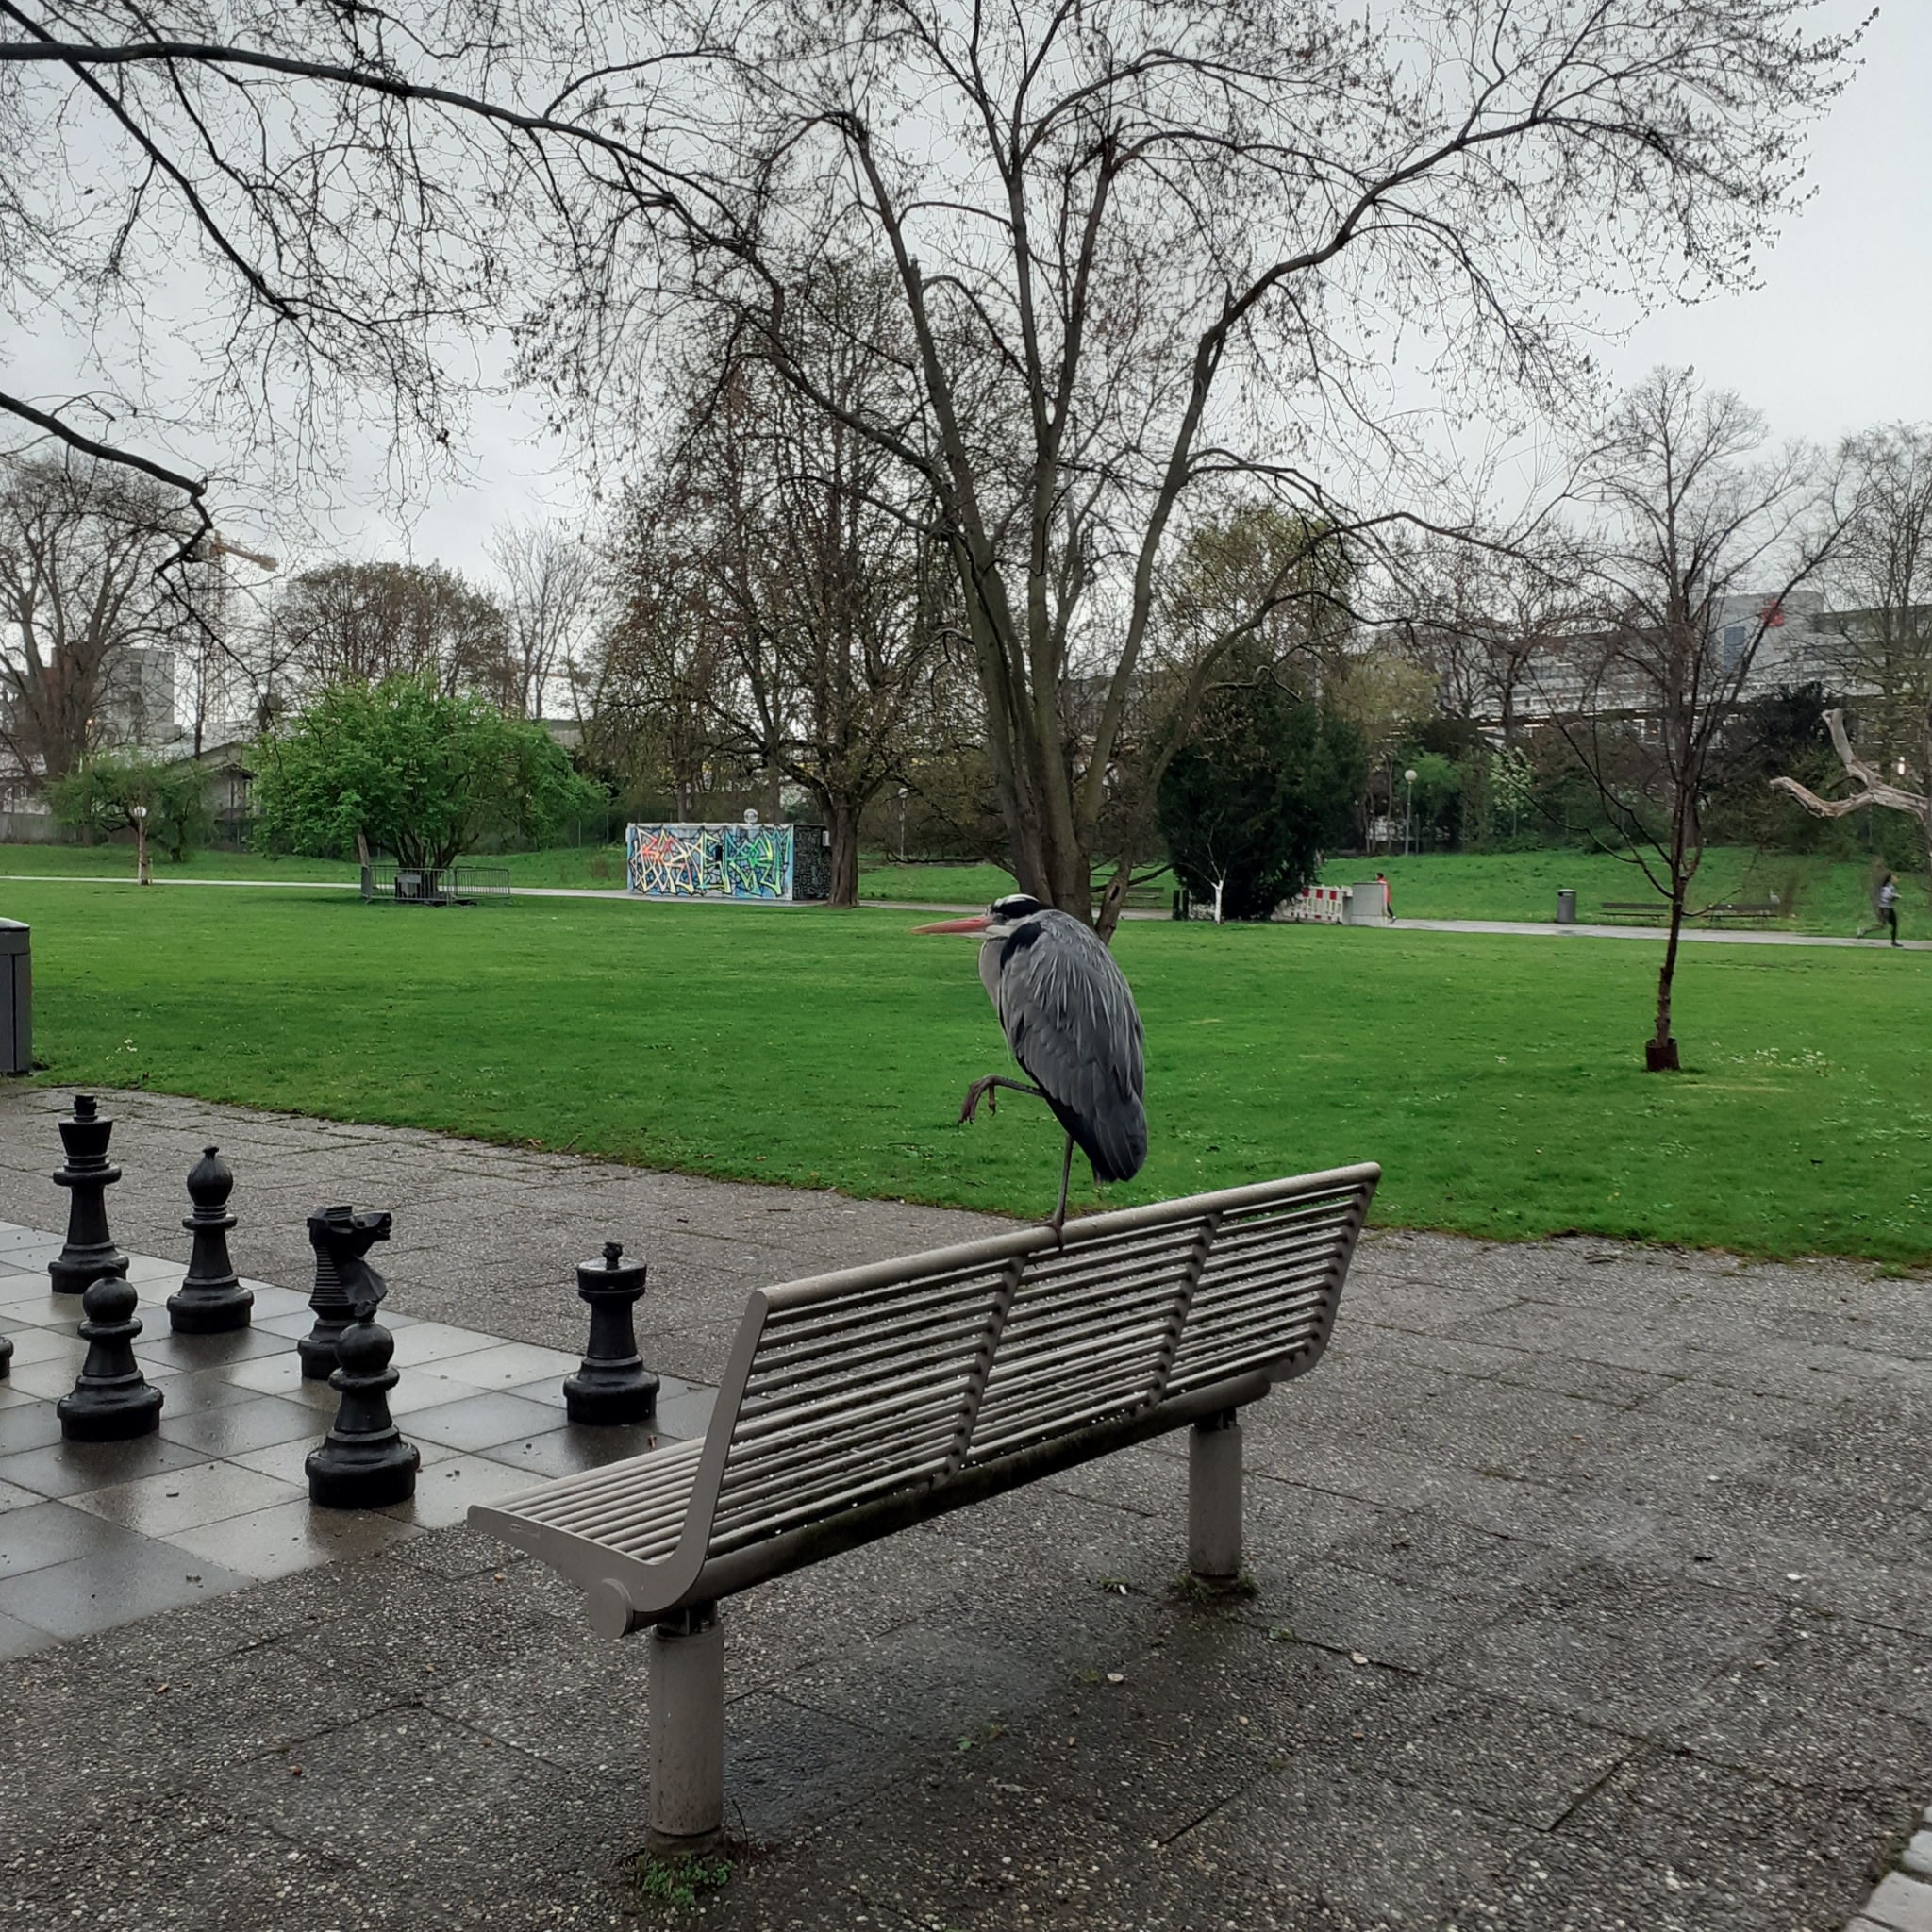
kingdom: Animalia
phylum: Chordata
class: Aves
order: Pelecaniformes
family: Ardeidae
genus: Ardea
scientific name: Ardea cinerea
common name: Grey heron
